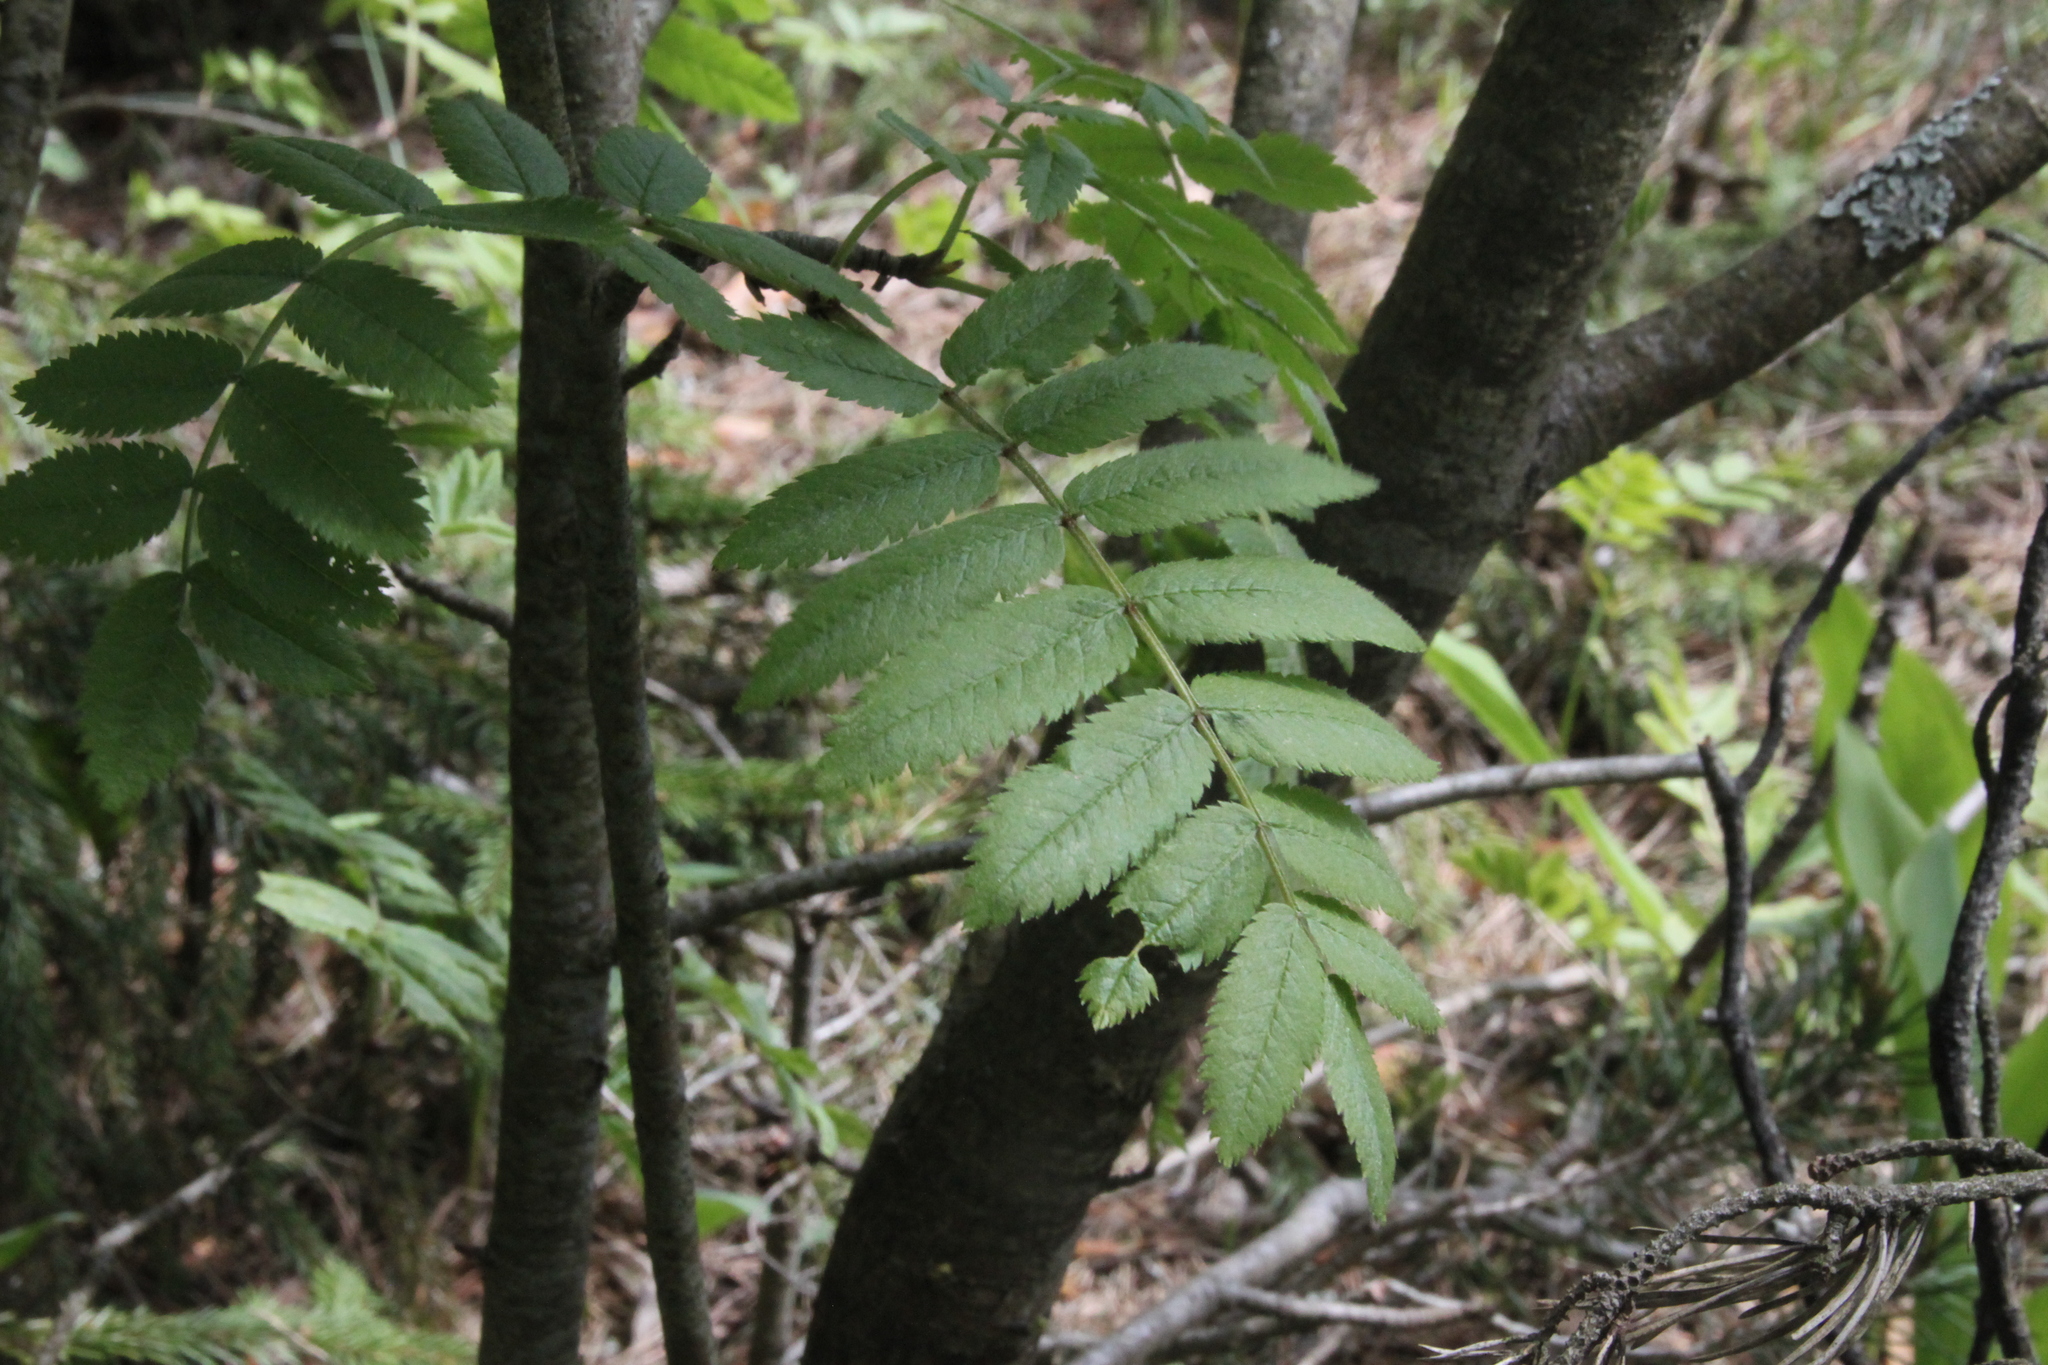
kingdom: Plantae
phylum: Tracheophyta
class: Magnoliopsida
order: Rosales
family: Rosaceae
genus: Sorbus
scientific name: Sorbus aucuparia
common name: Rowan
